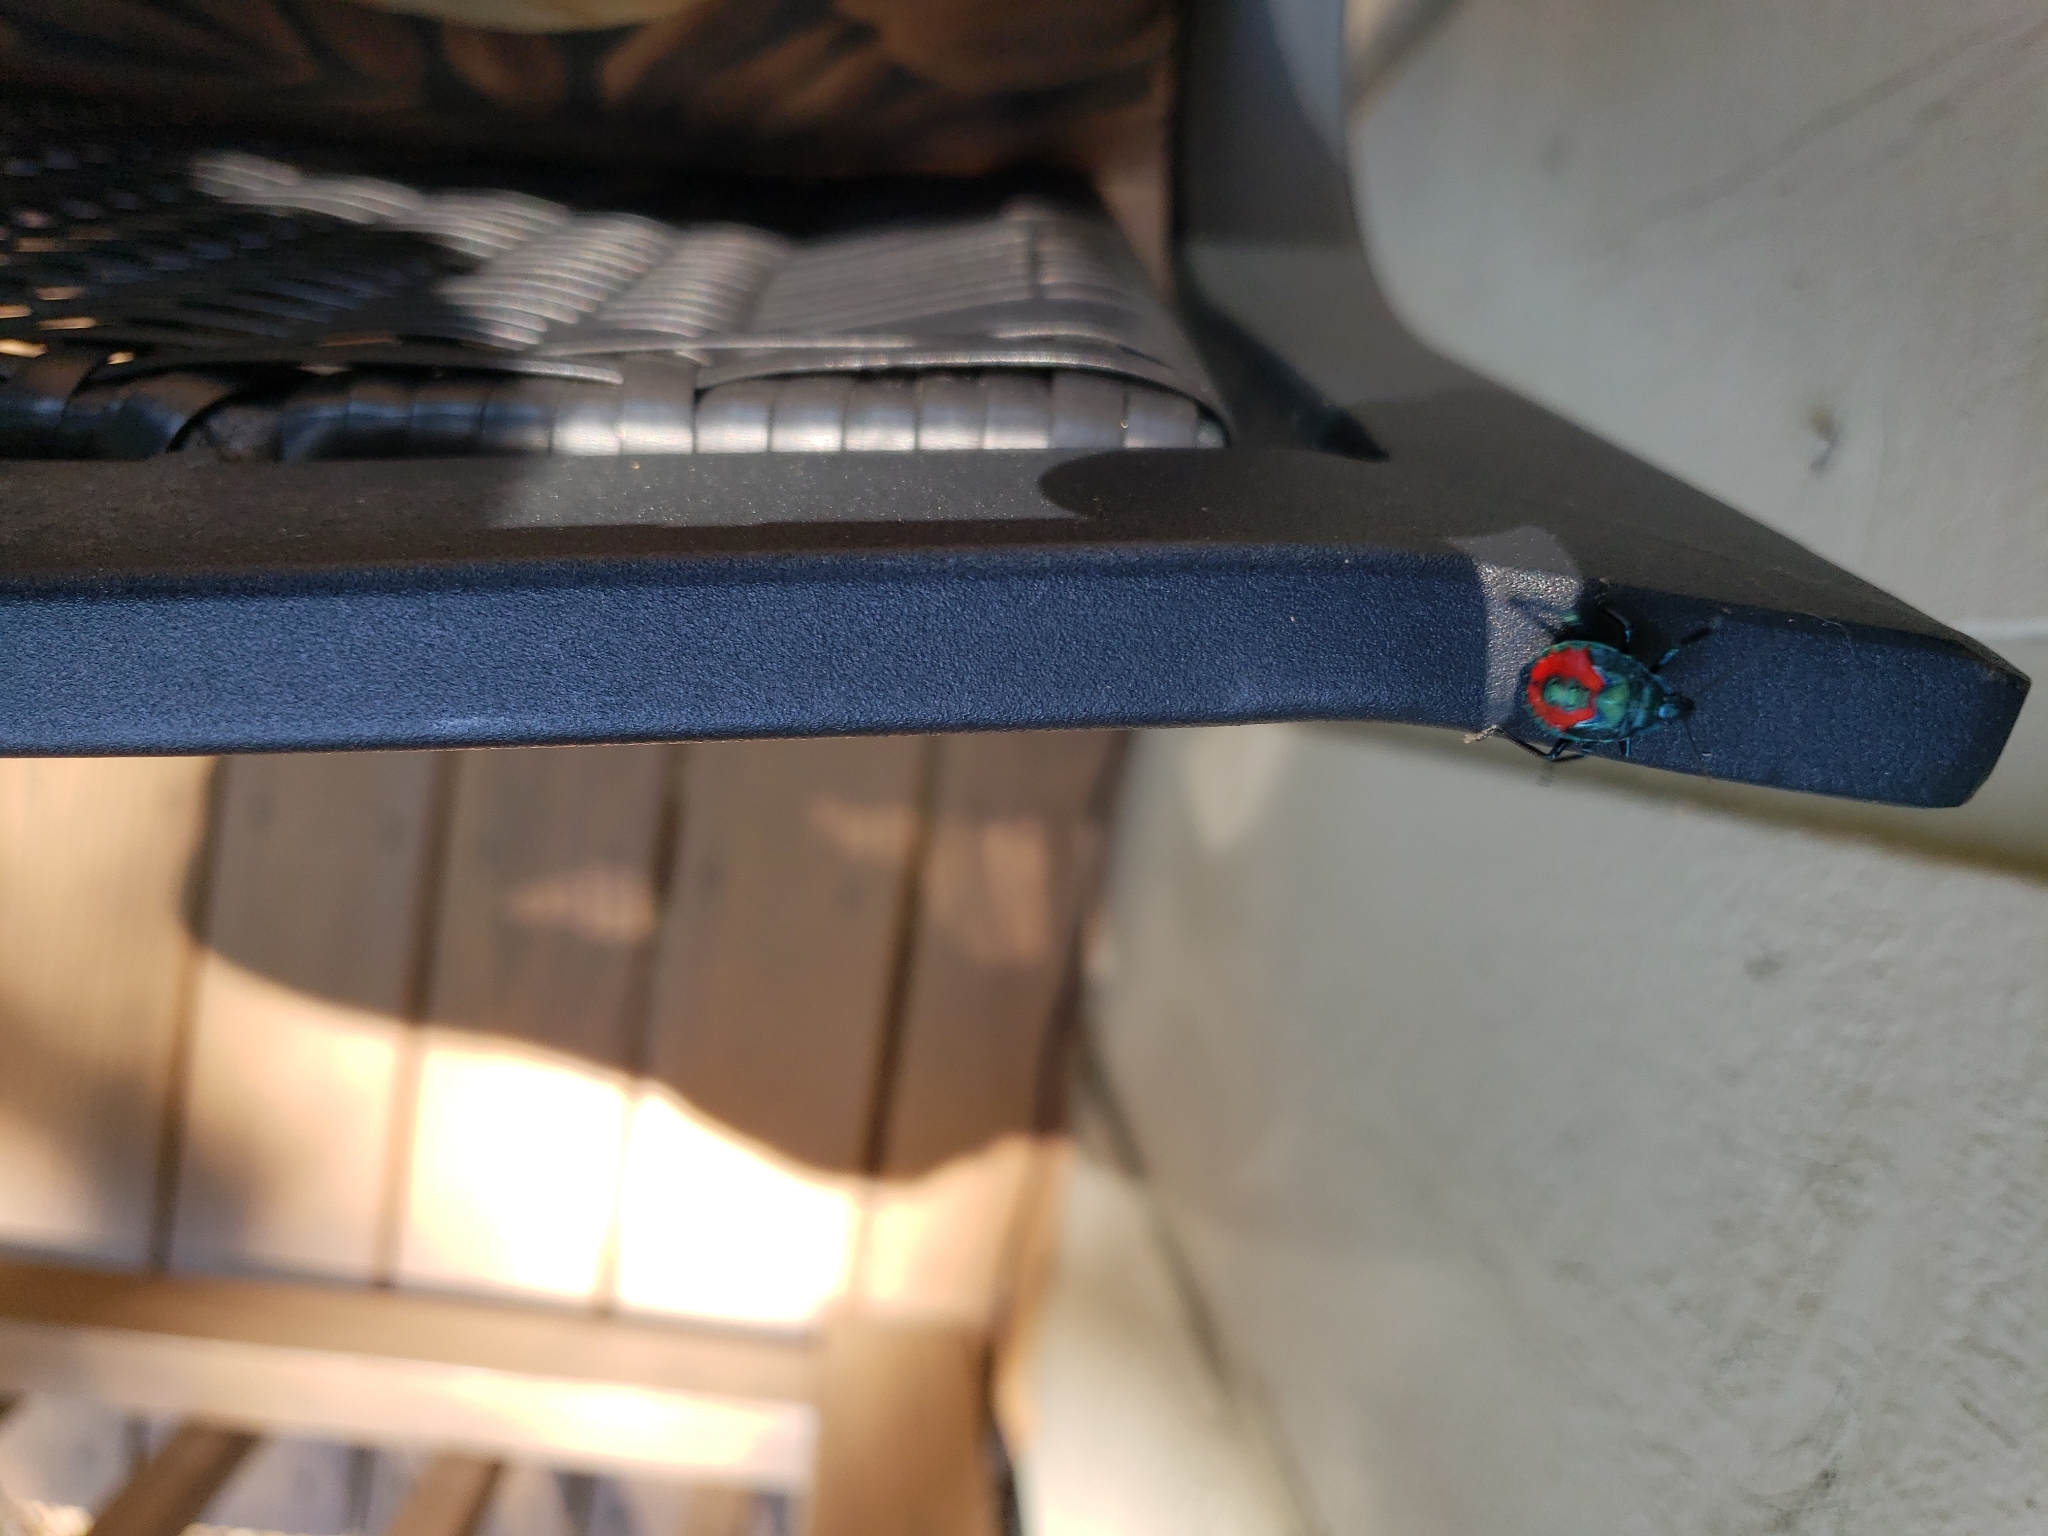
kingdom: Animalia
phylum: Arthropoda
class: Insecta
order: Hemiptera
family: Pentatomidae
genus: Euthyrhynchus
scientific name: Euthyrhynchus floridanus
